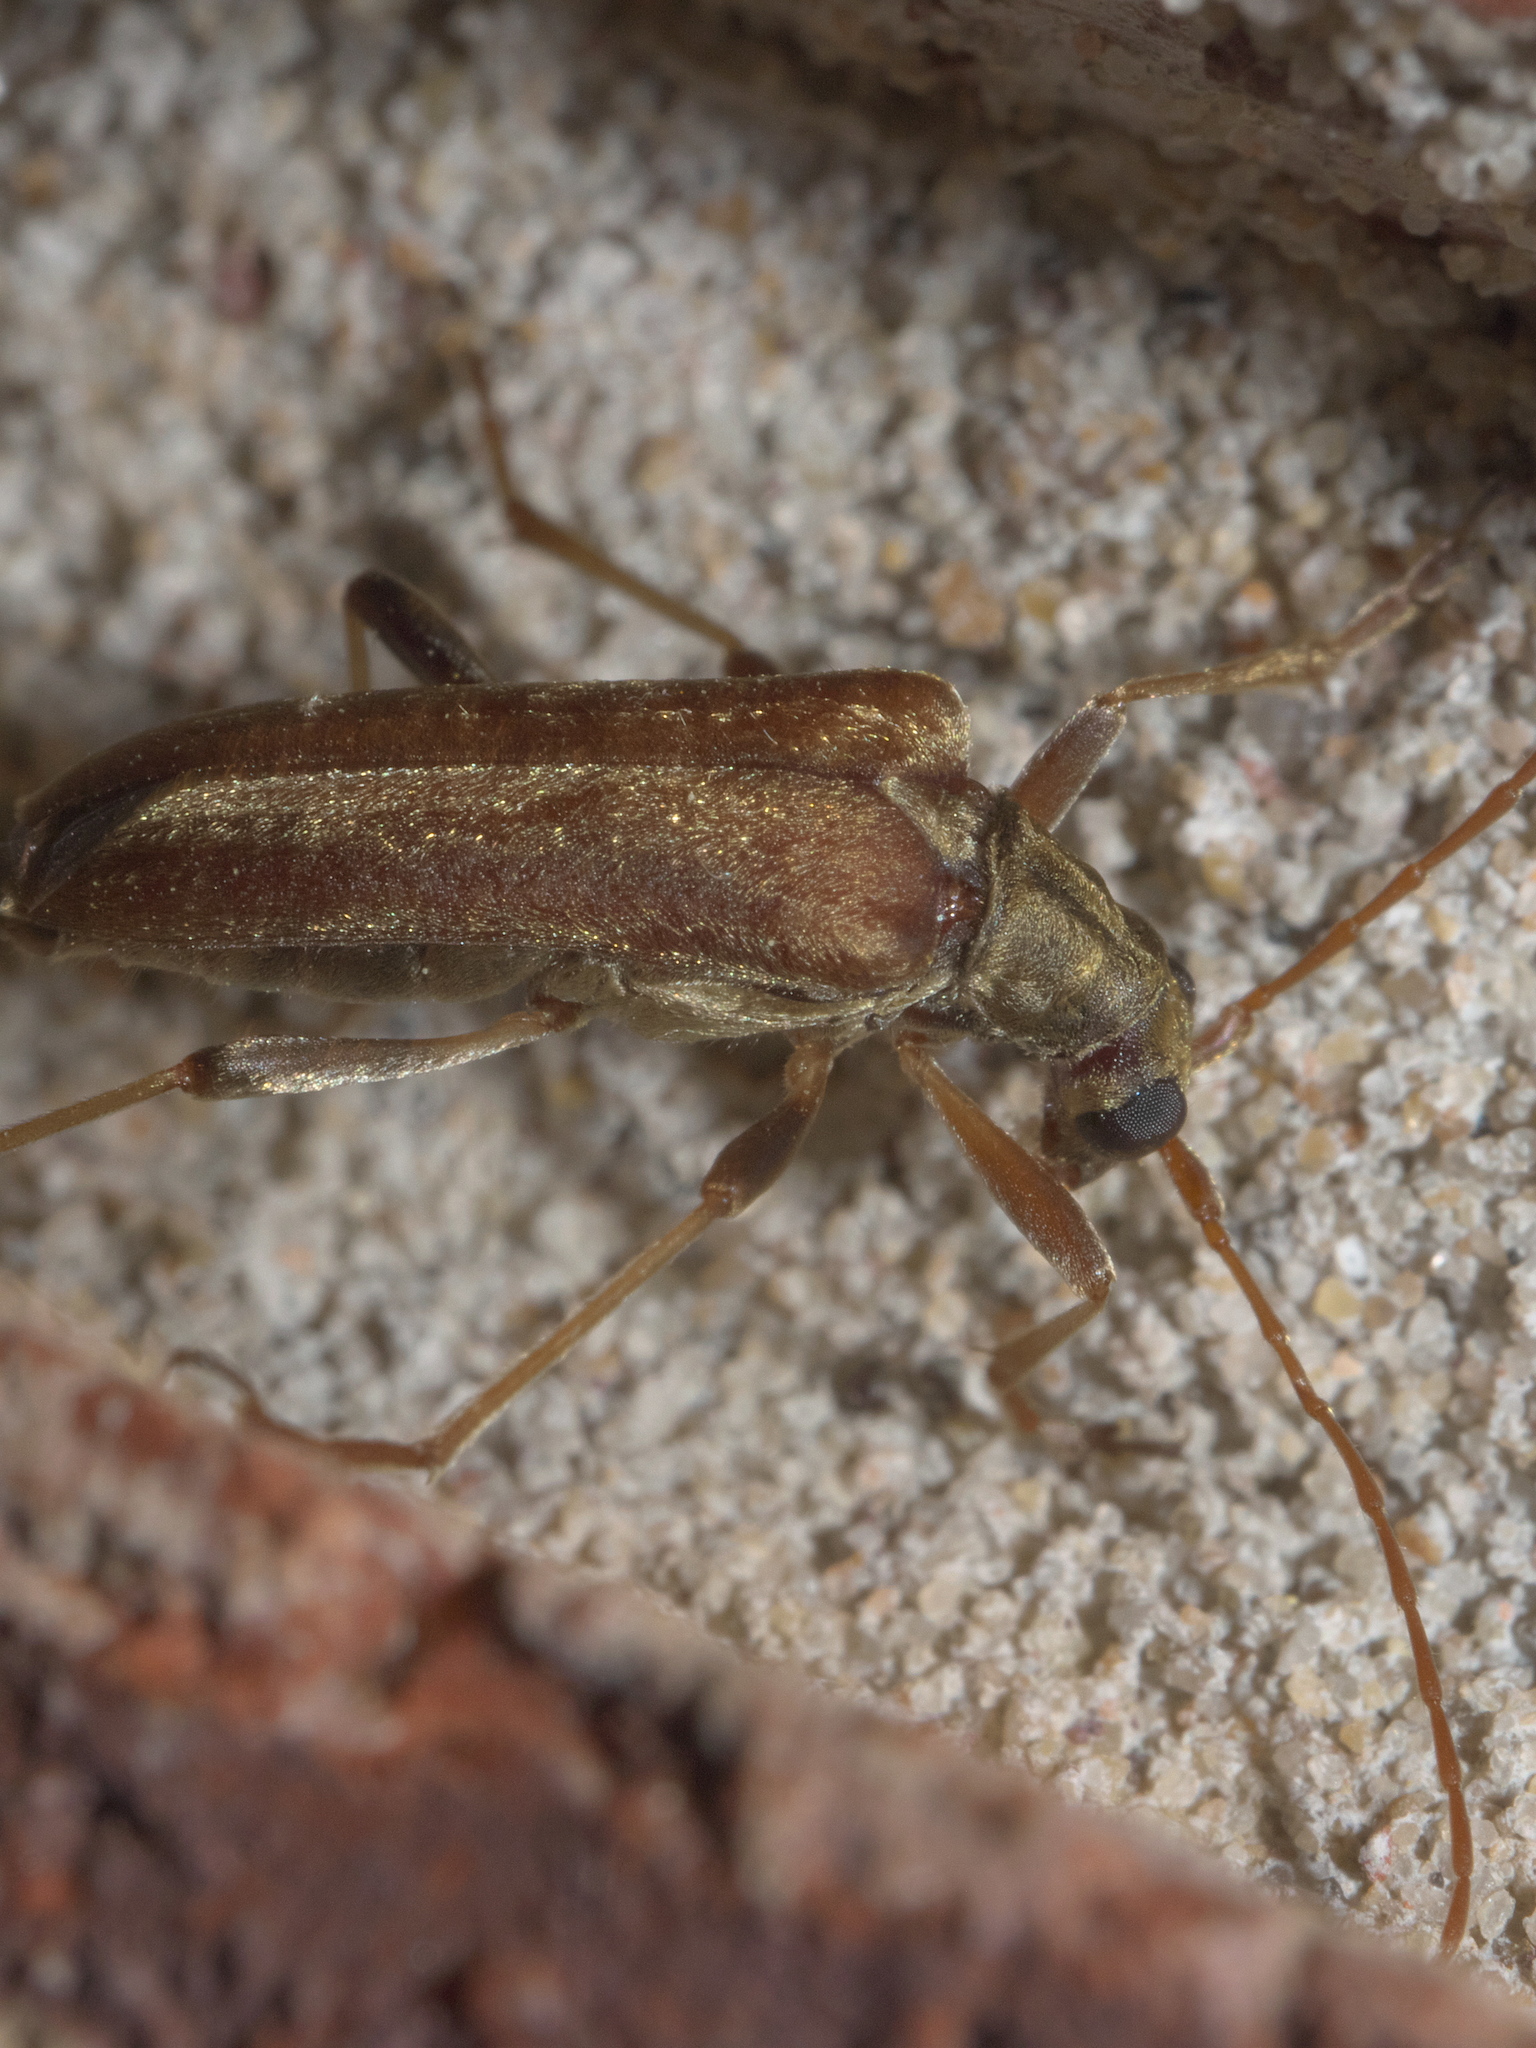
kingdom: Animalia
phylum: Arthropoda
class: Insecta
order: Coleoptera
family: Cerambycidae
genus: Stenocorus
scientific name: Stenocorus cinnamopterus
